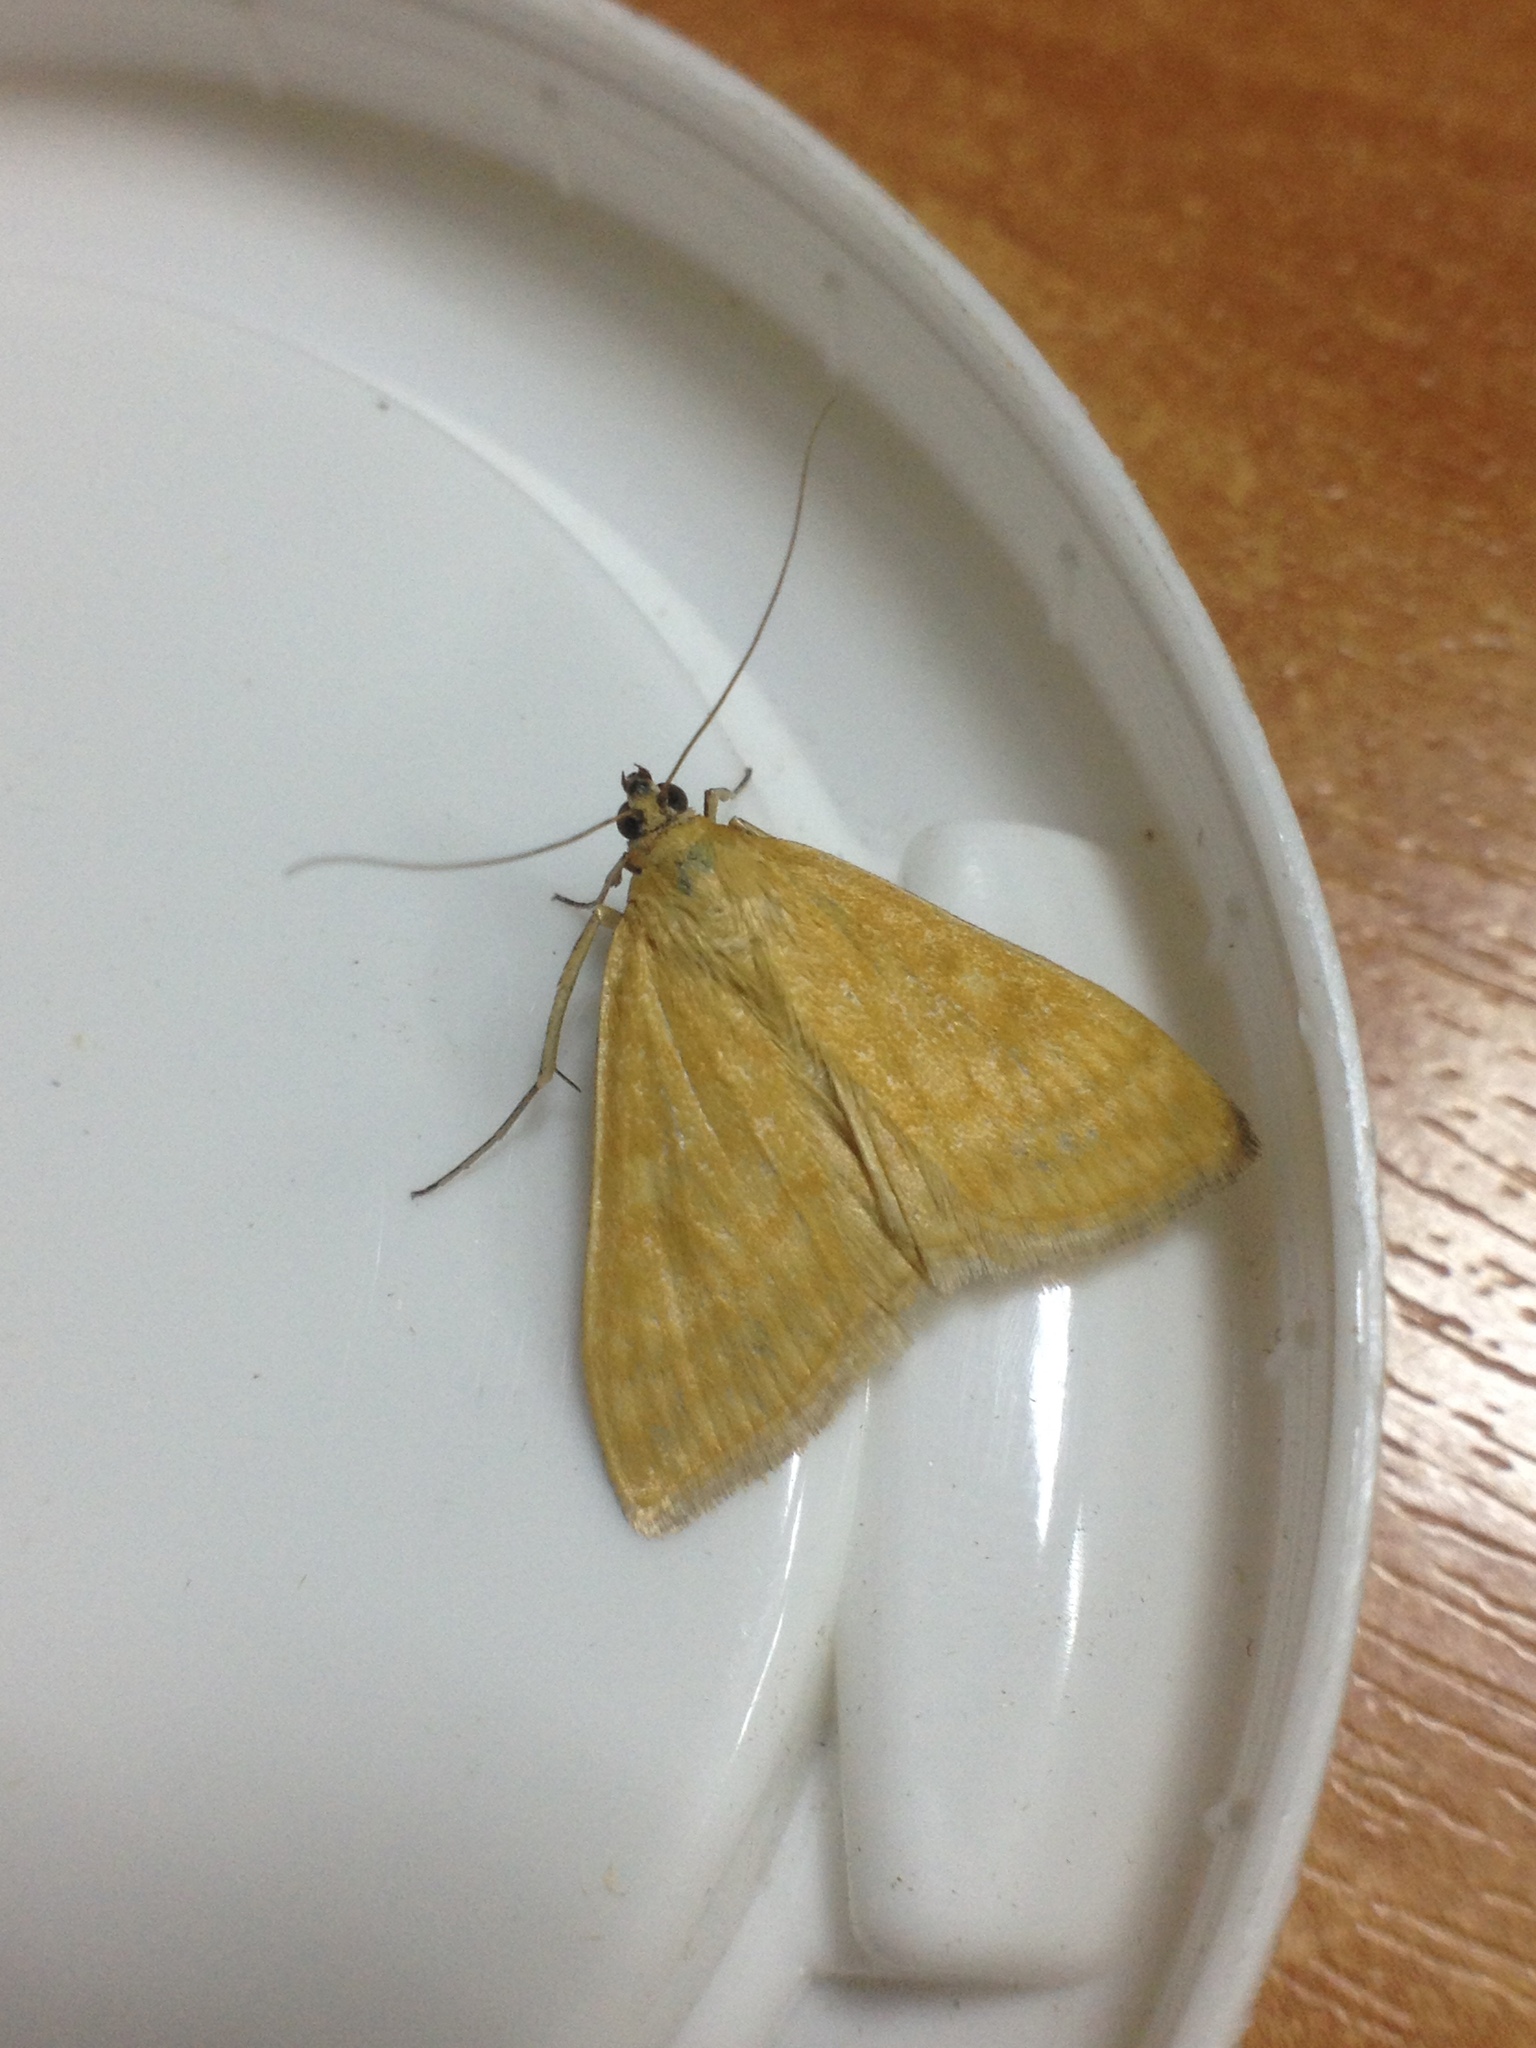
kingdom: Animalia
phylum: Arthropoda
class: Insecta
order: Lepidoptera
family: Crambidae
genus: Sitochroa
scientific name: Sitochroa verticalis
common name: Lesser pearl
